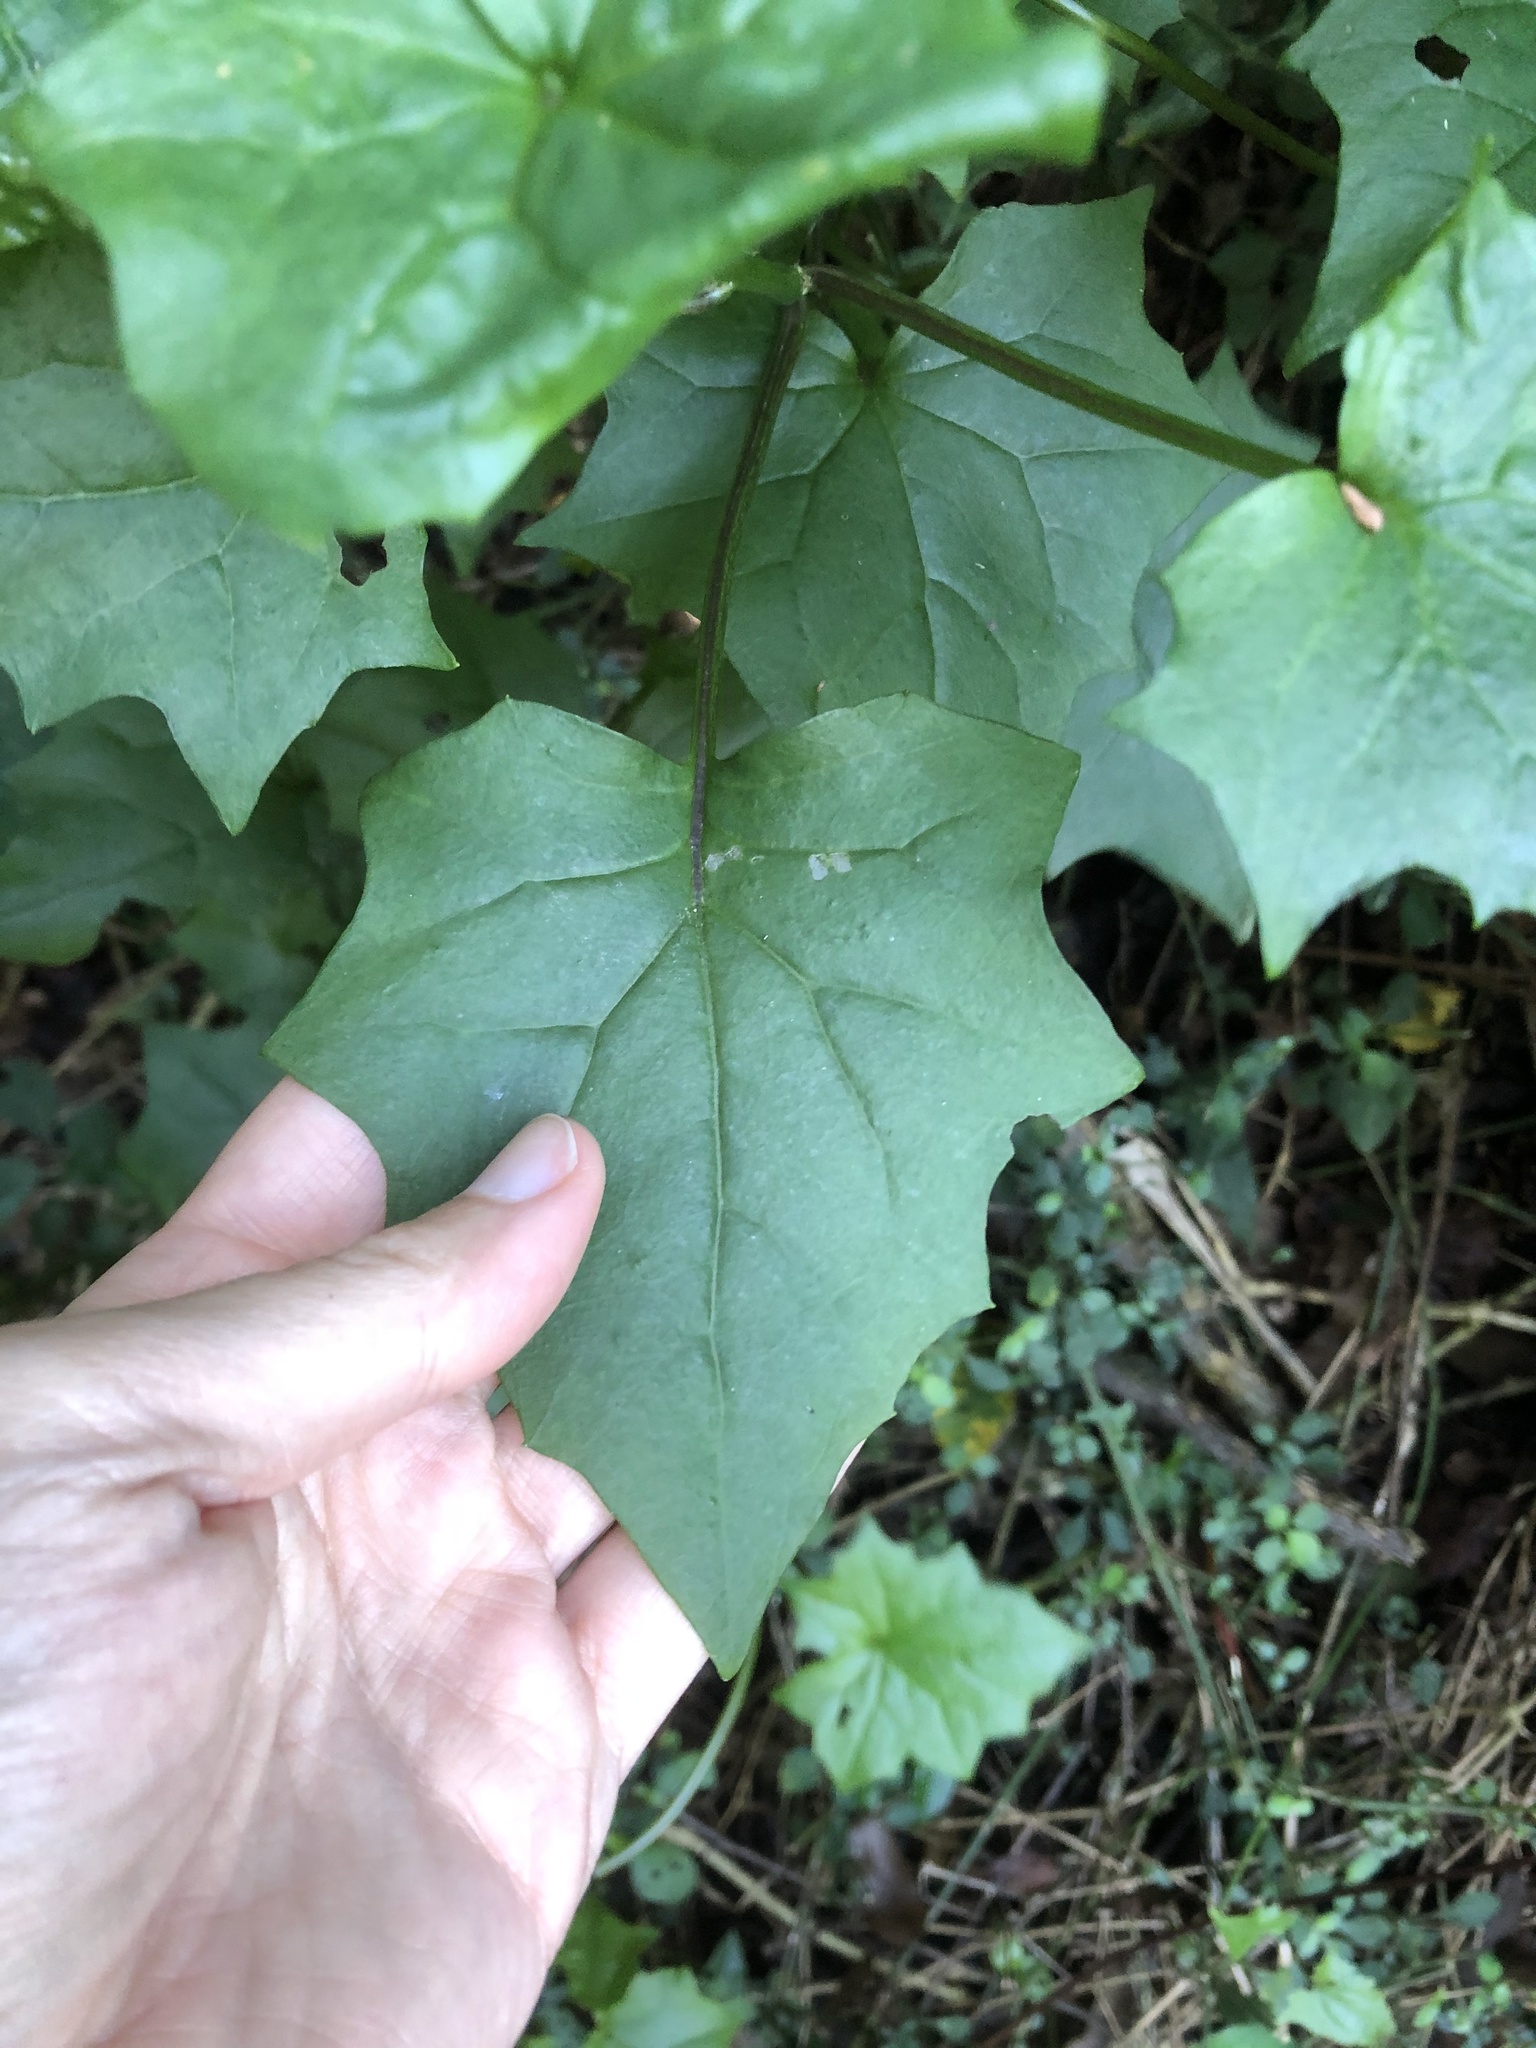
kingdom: Plantae
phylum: Tracheophyta
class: Magnoliopsida
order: Asterales
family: Asteraceae
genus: Senecio
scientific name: Senecio tamoides
